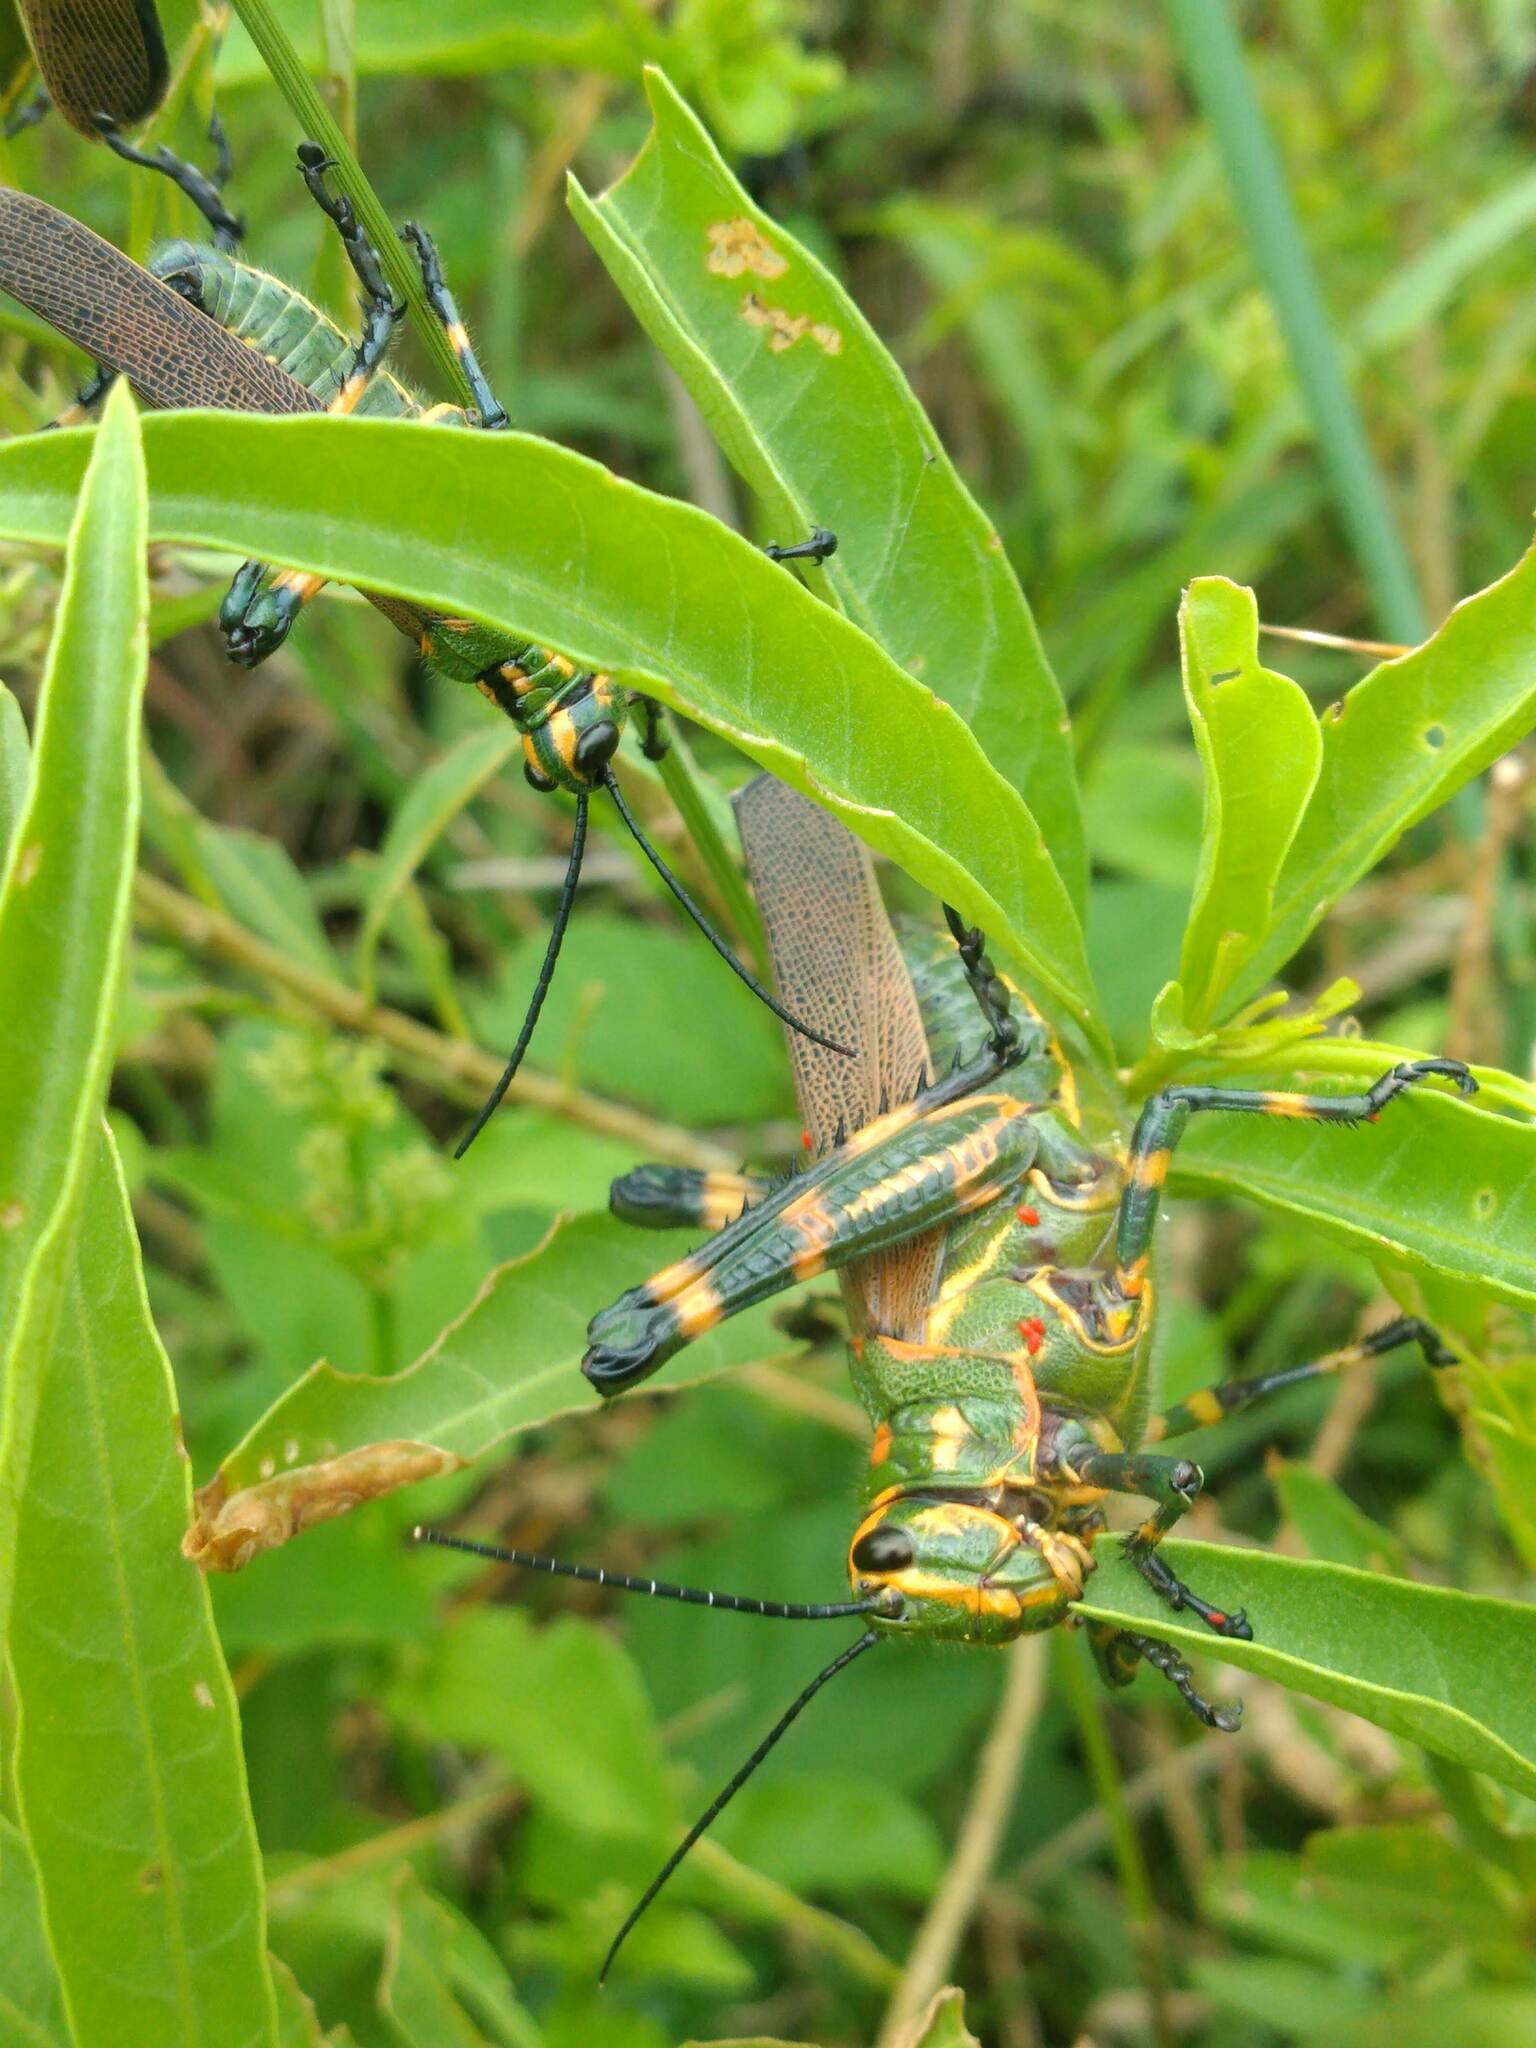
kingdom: Animalia
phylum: Arthropoda
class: Insecta
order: Orthoptera
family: Romaleidae
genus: Chromacris
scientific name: Chromacris speciosa
